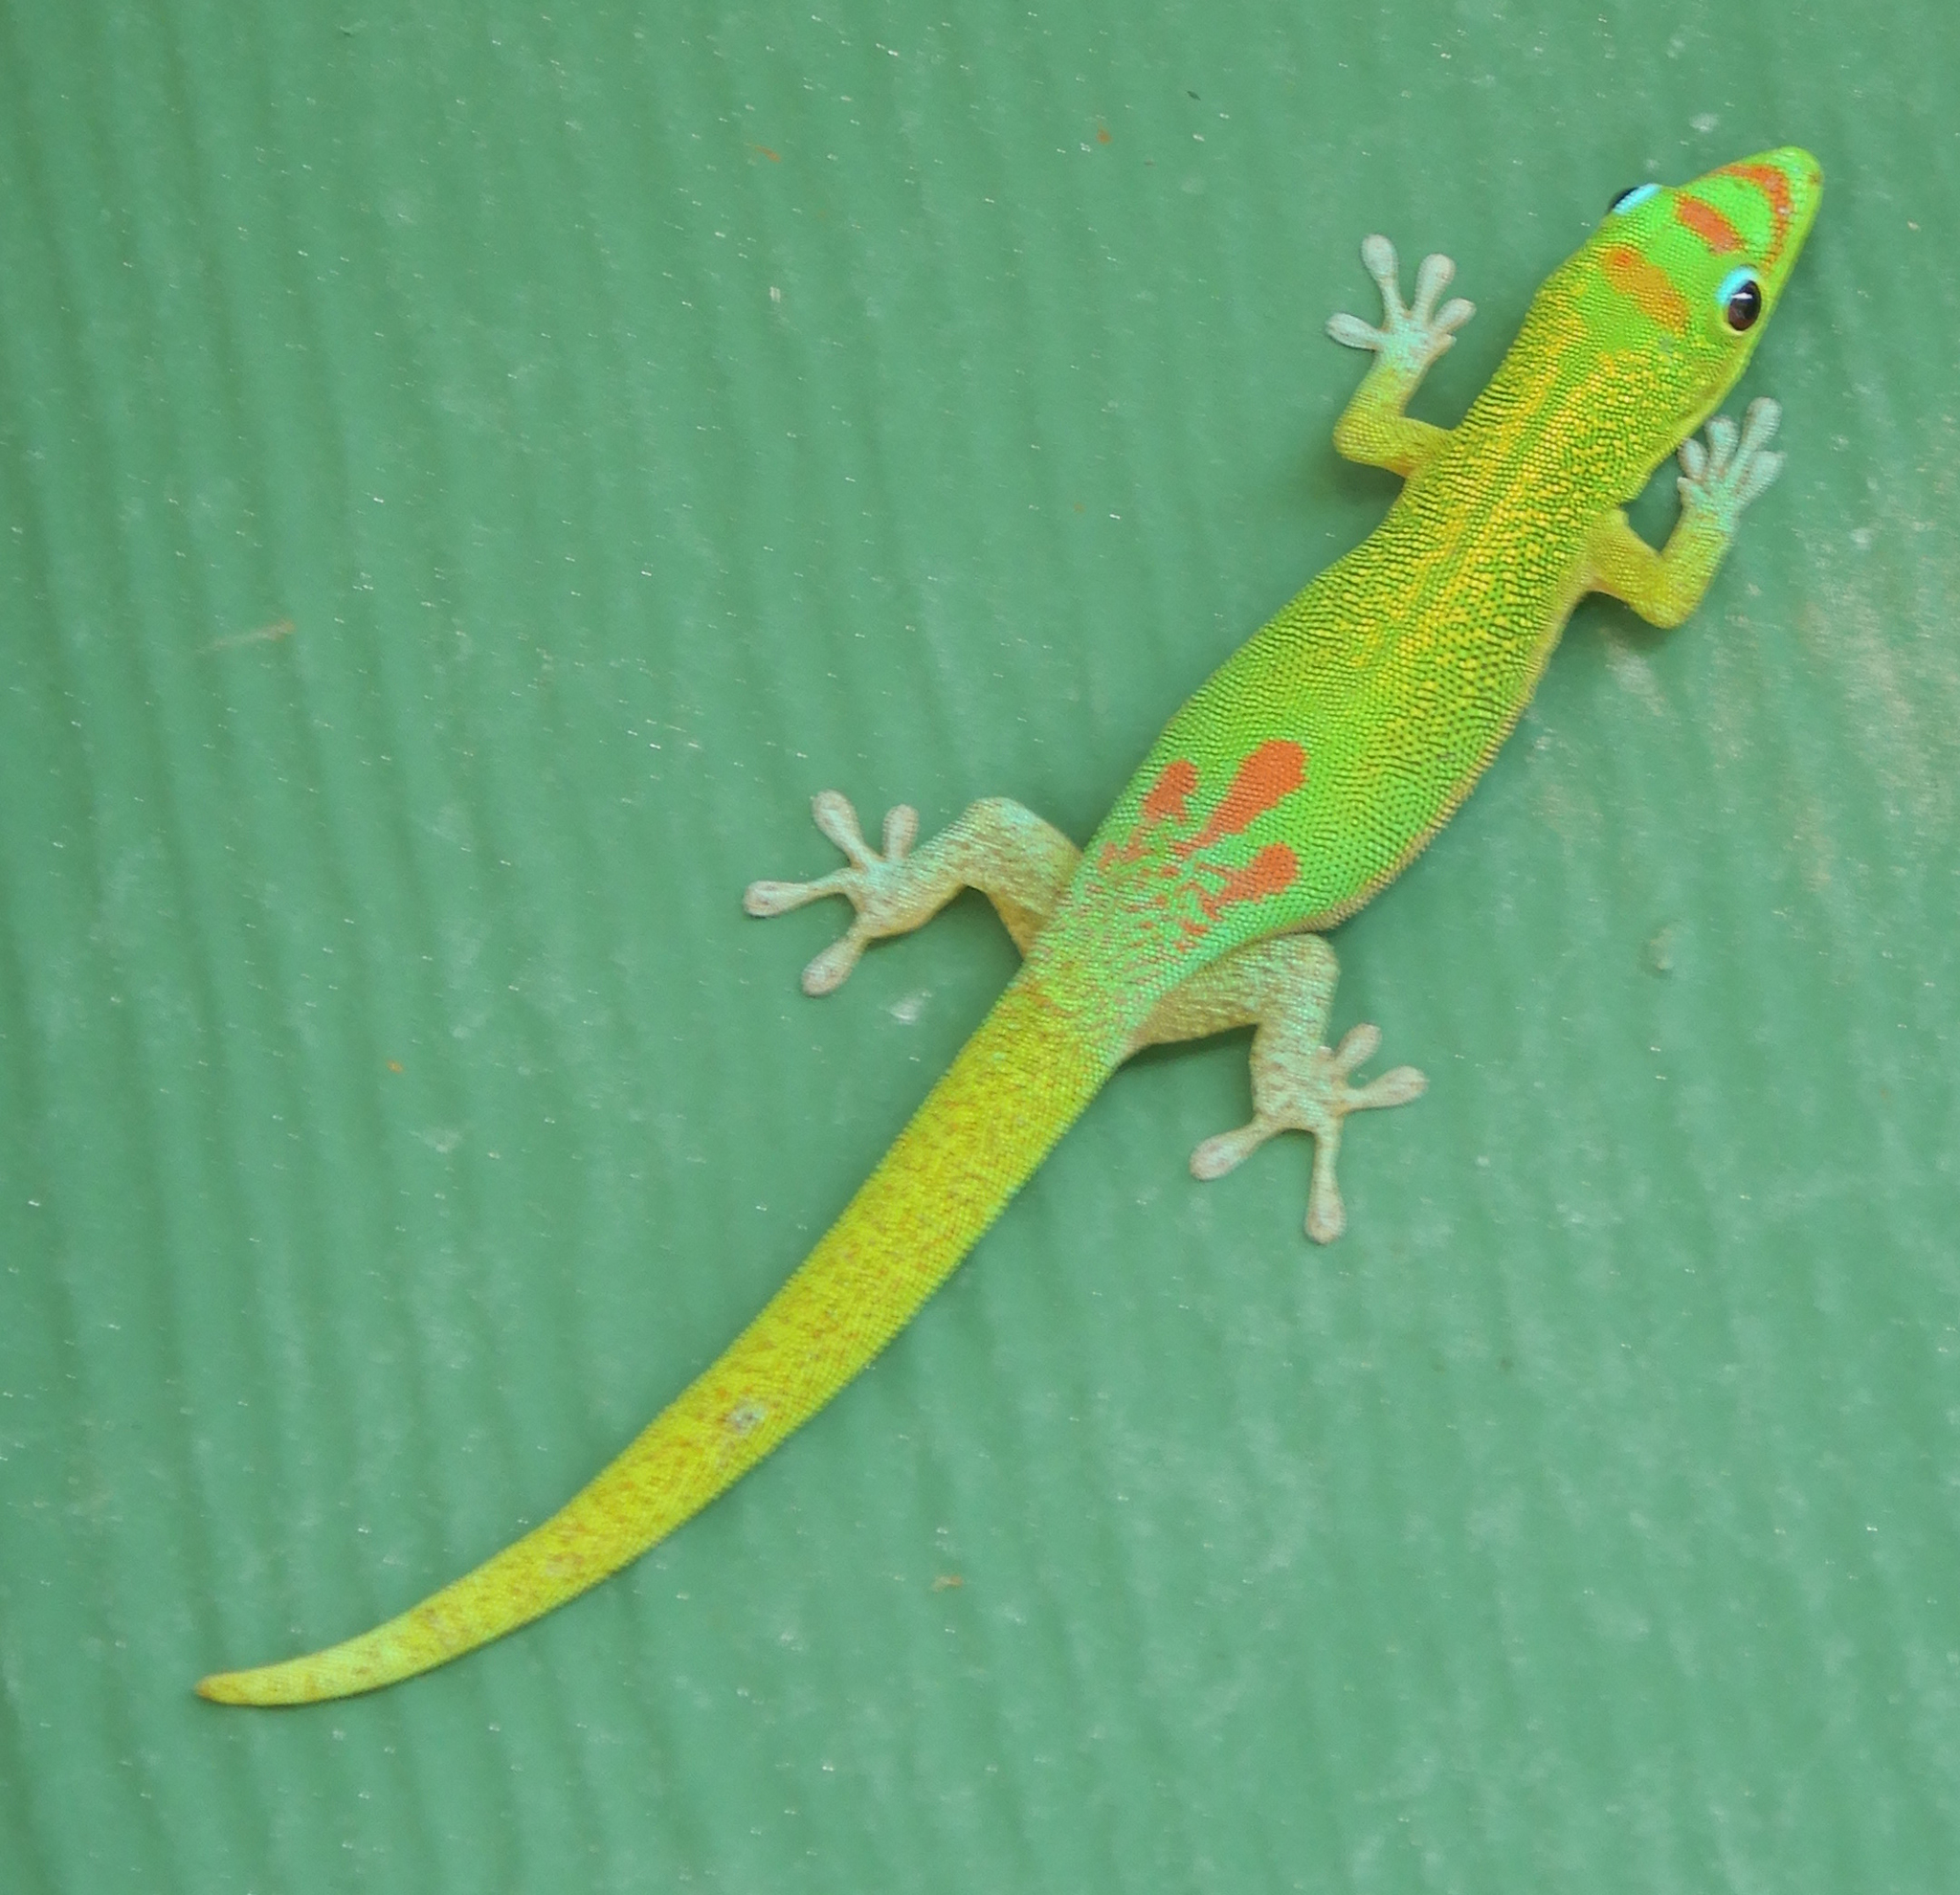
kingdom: Animalia
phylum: Chordata
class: Squamata
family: Gekkonidae
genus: Phelsuma
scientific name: Phelsuma laticauda
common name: Gold dust day gecko
